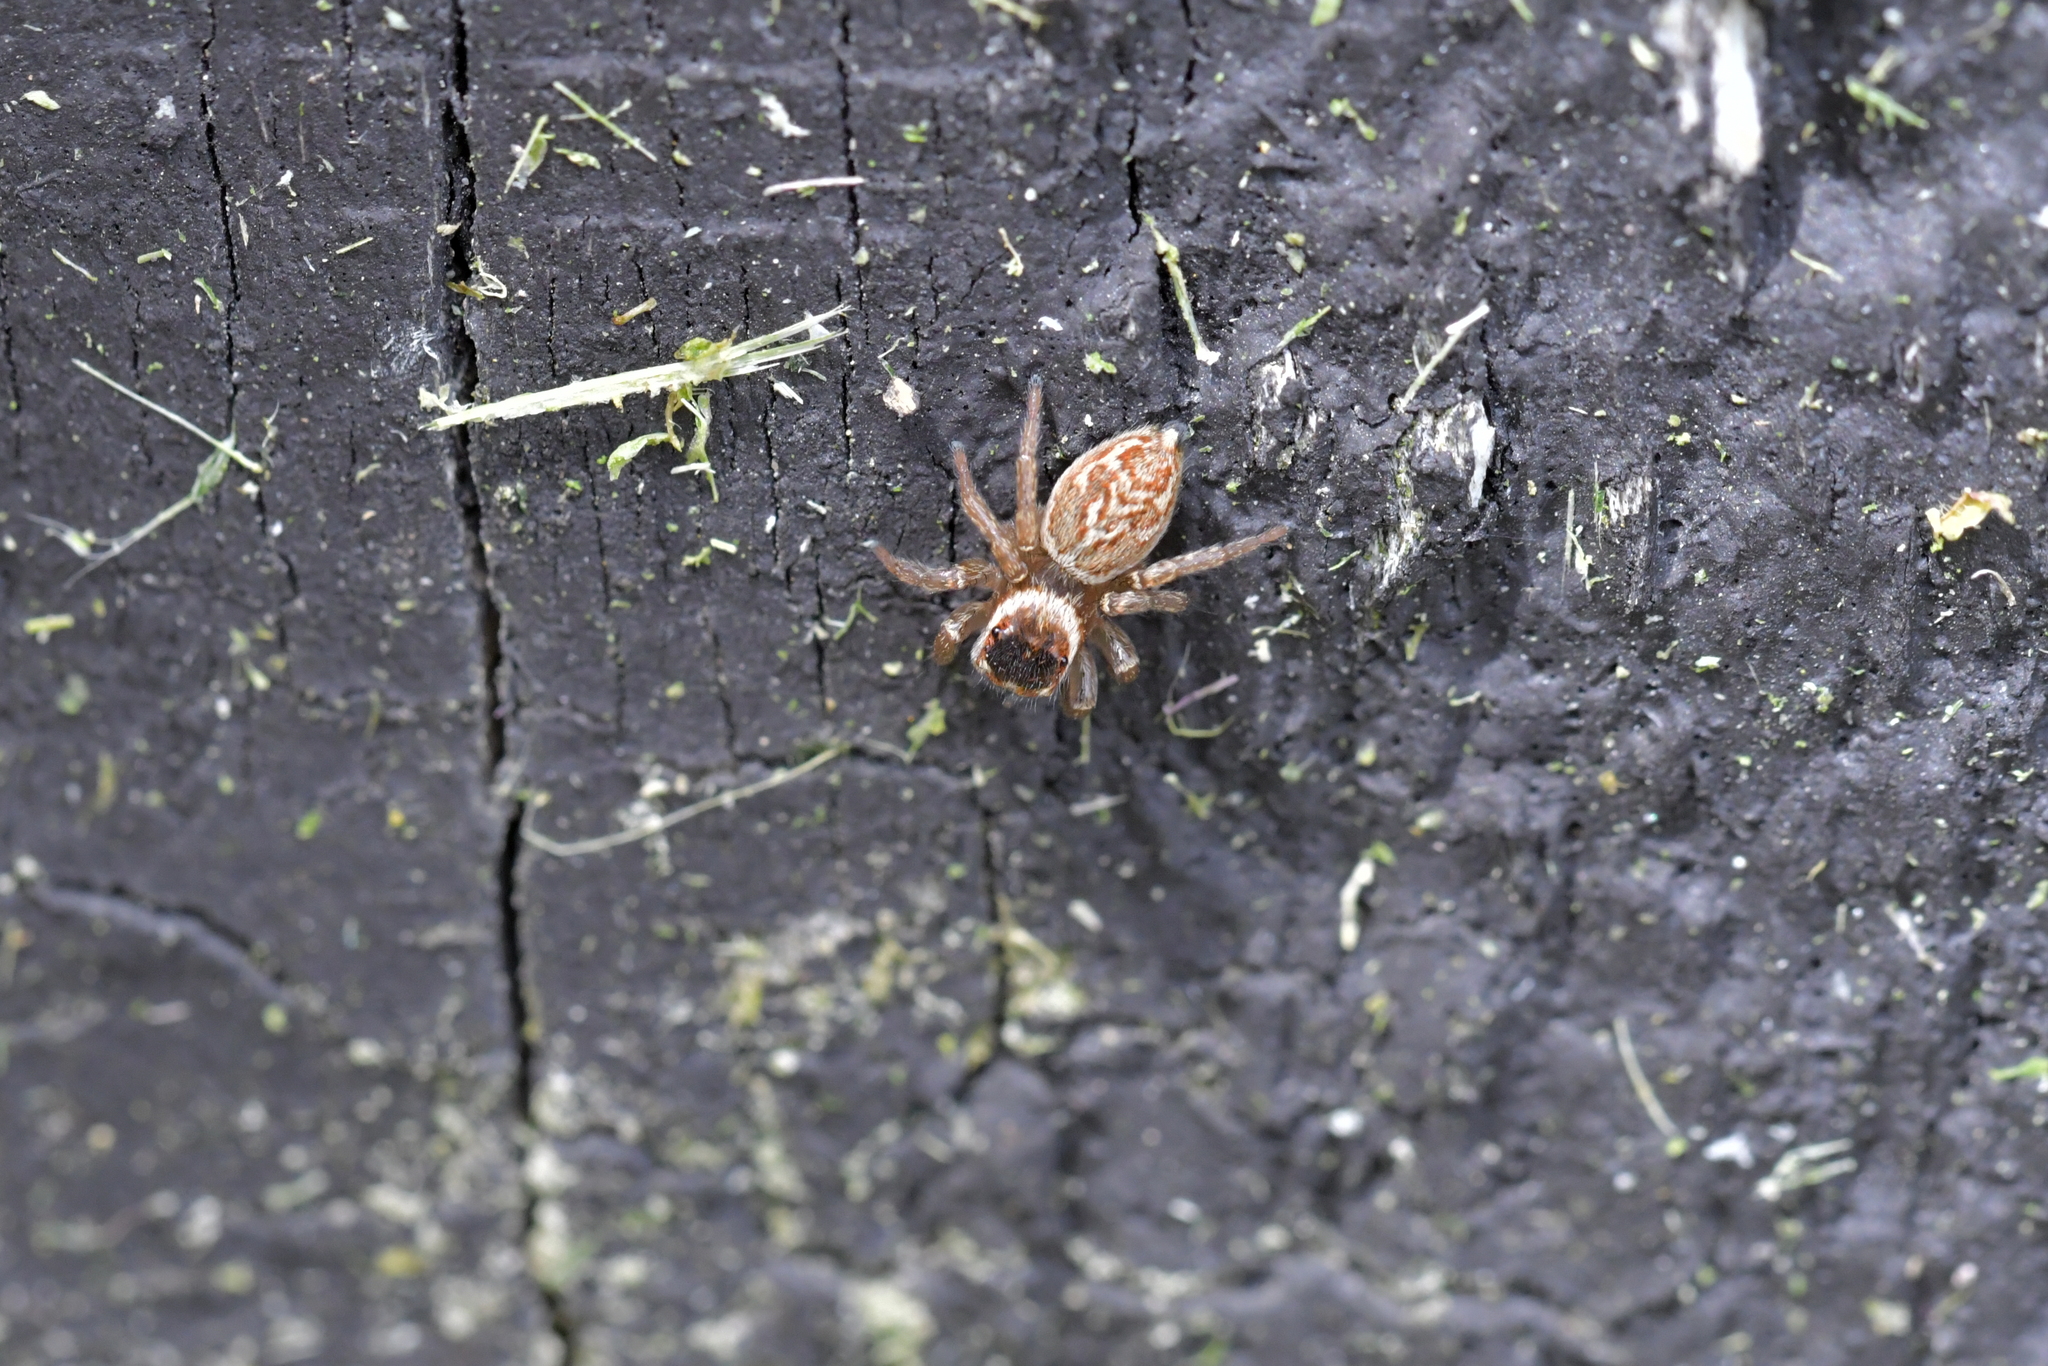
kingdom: Animalia
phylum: Arthropoda
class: Arachnida
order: Araneae
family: Salticidae
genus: Maratus
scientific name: Maratus griseus
